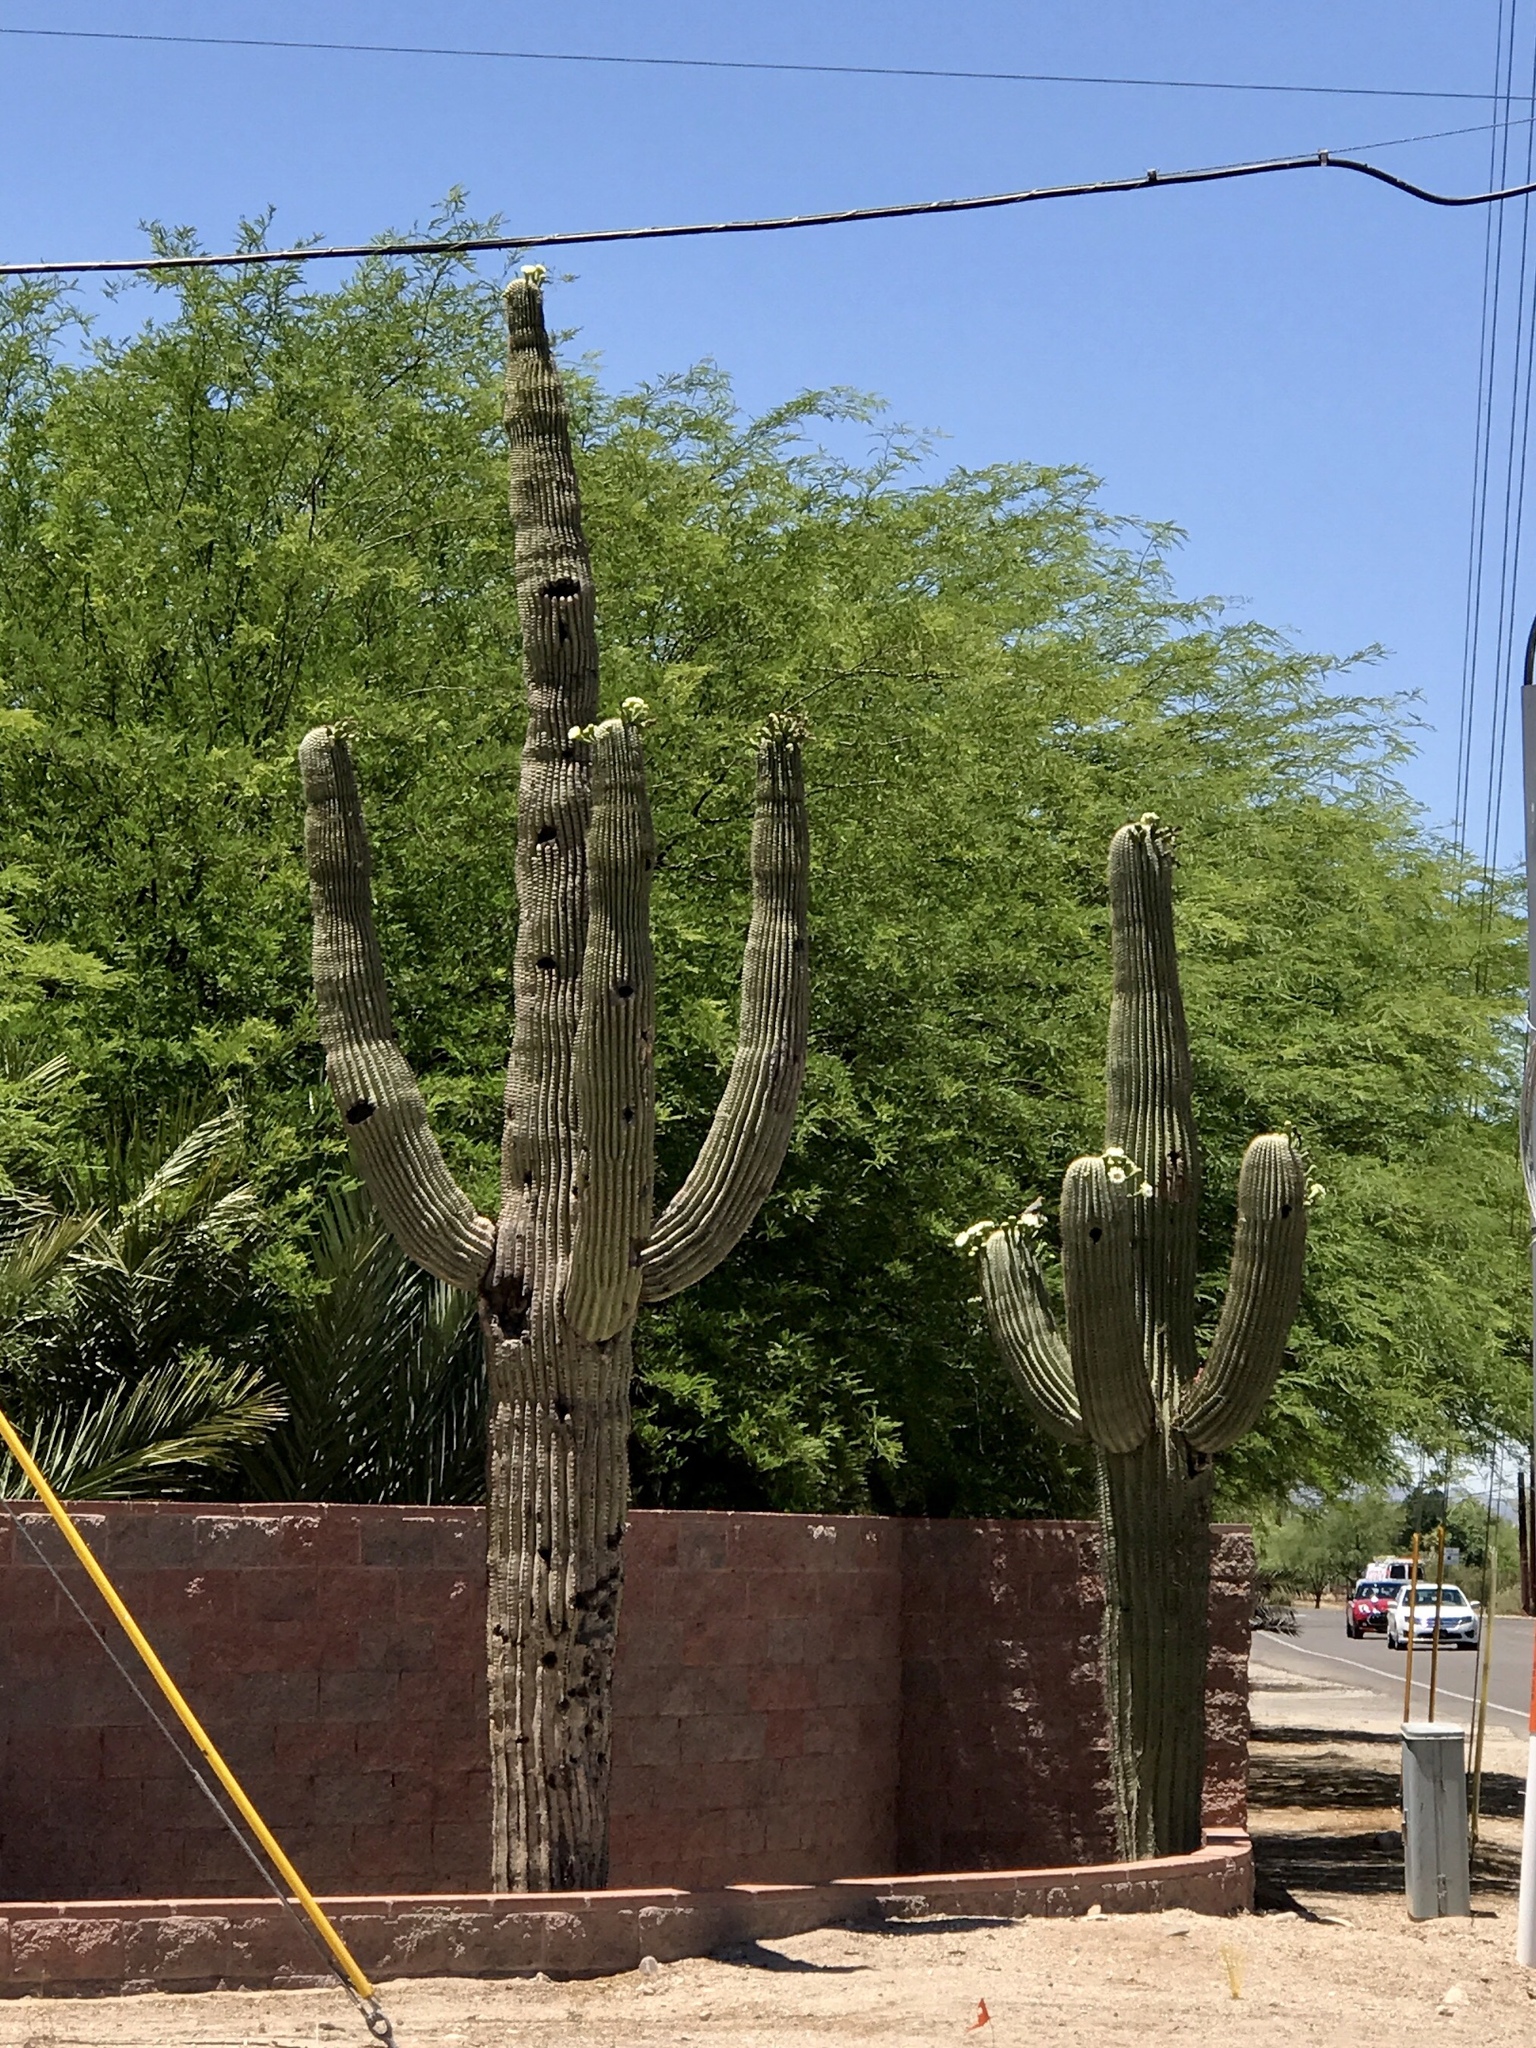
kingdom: Plantae
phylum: Tracheophyta
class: Magnoliopsida
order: Caryophyllales
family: Cactaceae
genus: Carnegiea
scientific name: Carnegiea gigantea
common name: Saguaro
